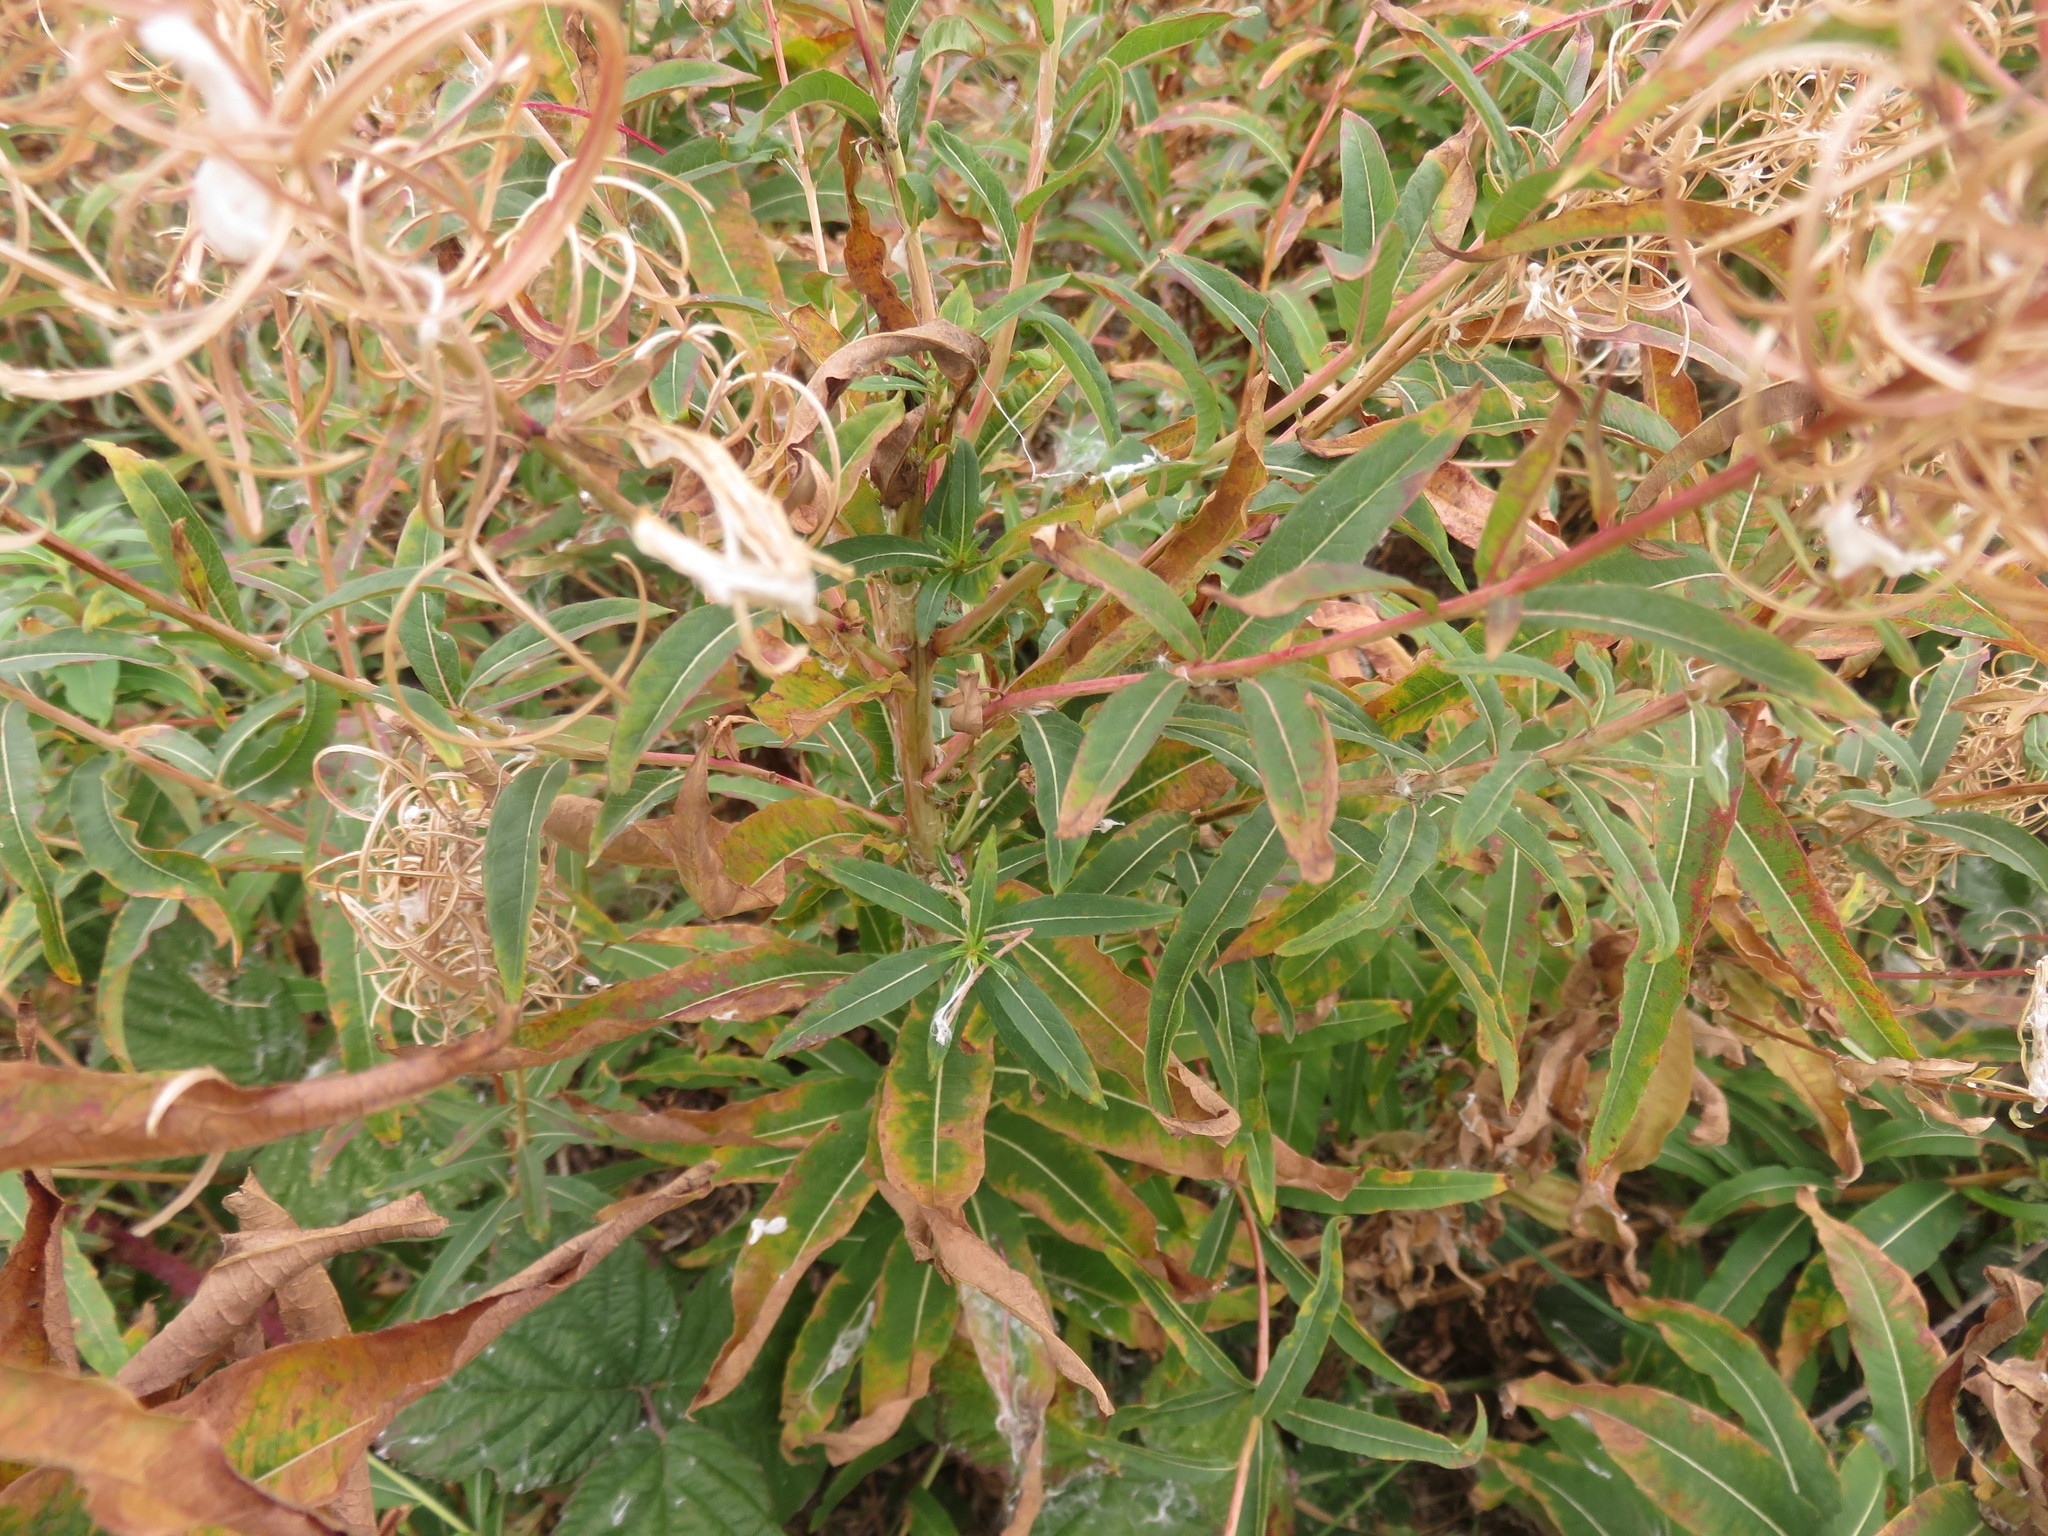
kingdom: Plantae
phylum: Tracheophyta
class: Magnoliopsida
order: Myrtales
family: Onagraceae
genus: Chamaenerion
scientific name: Chamaenerion angustifolium
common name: Fireweed
